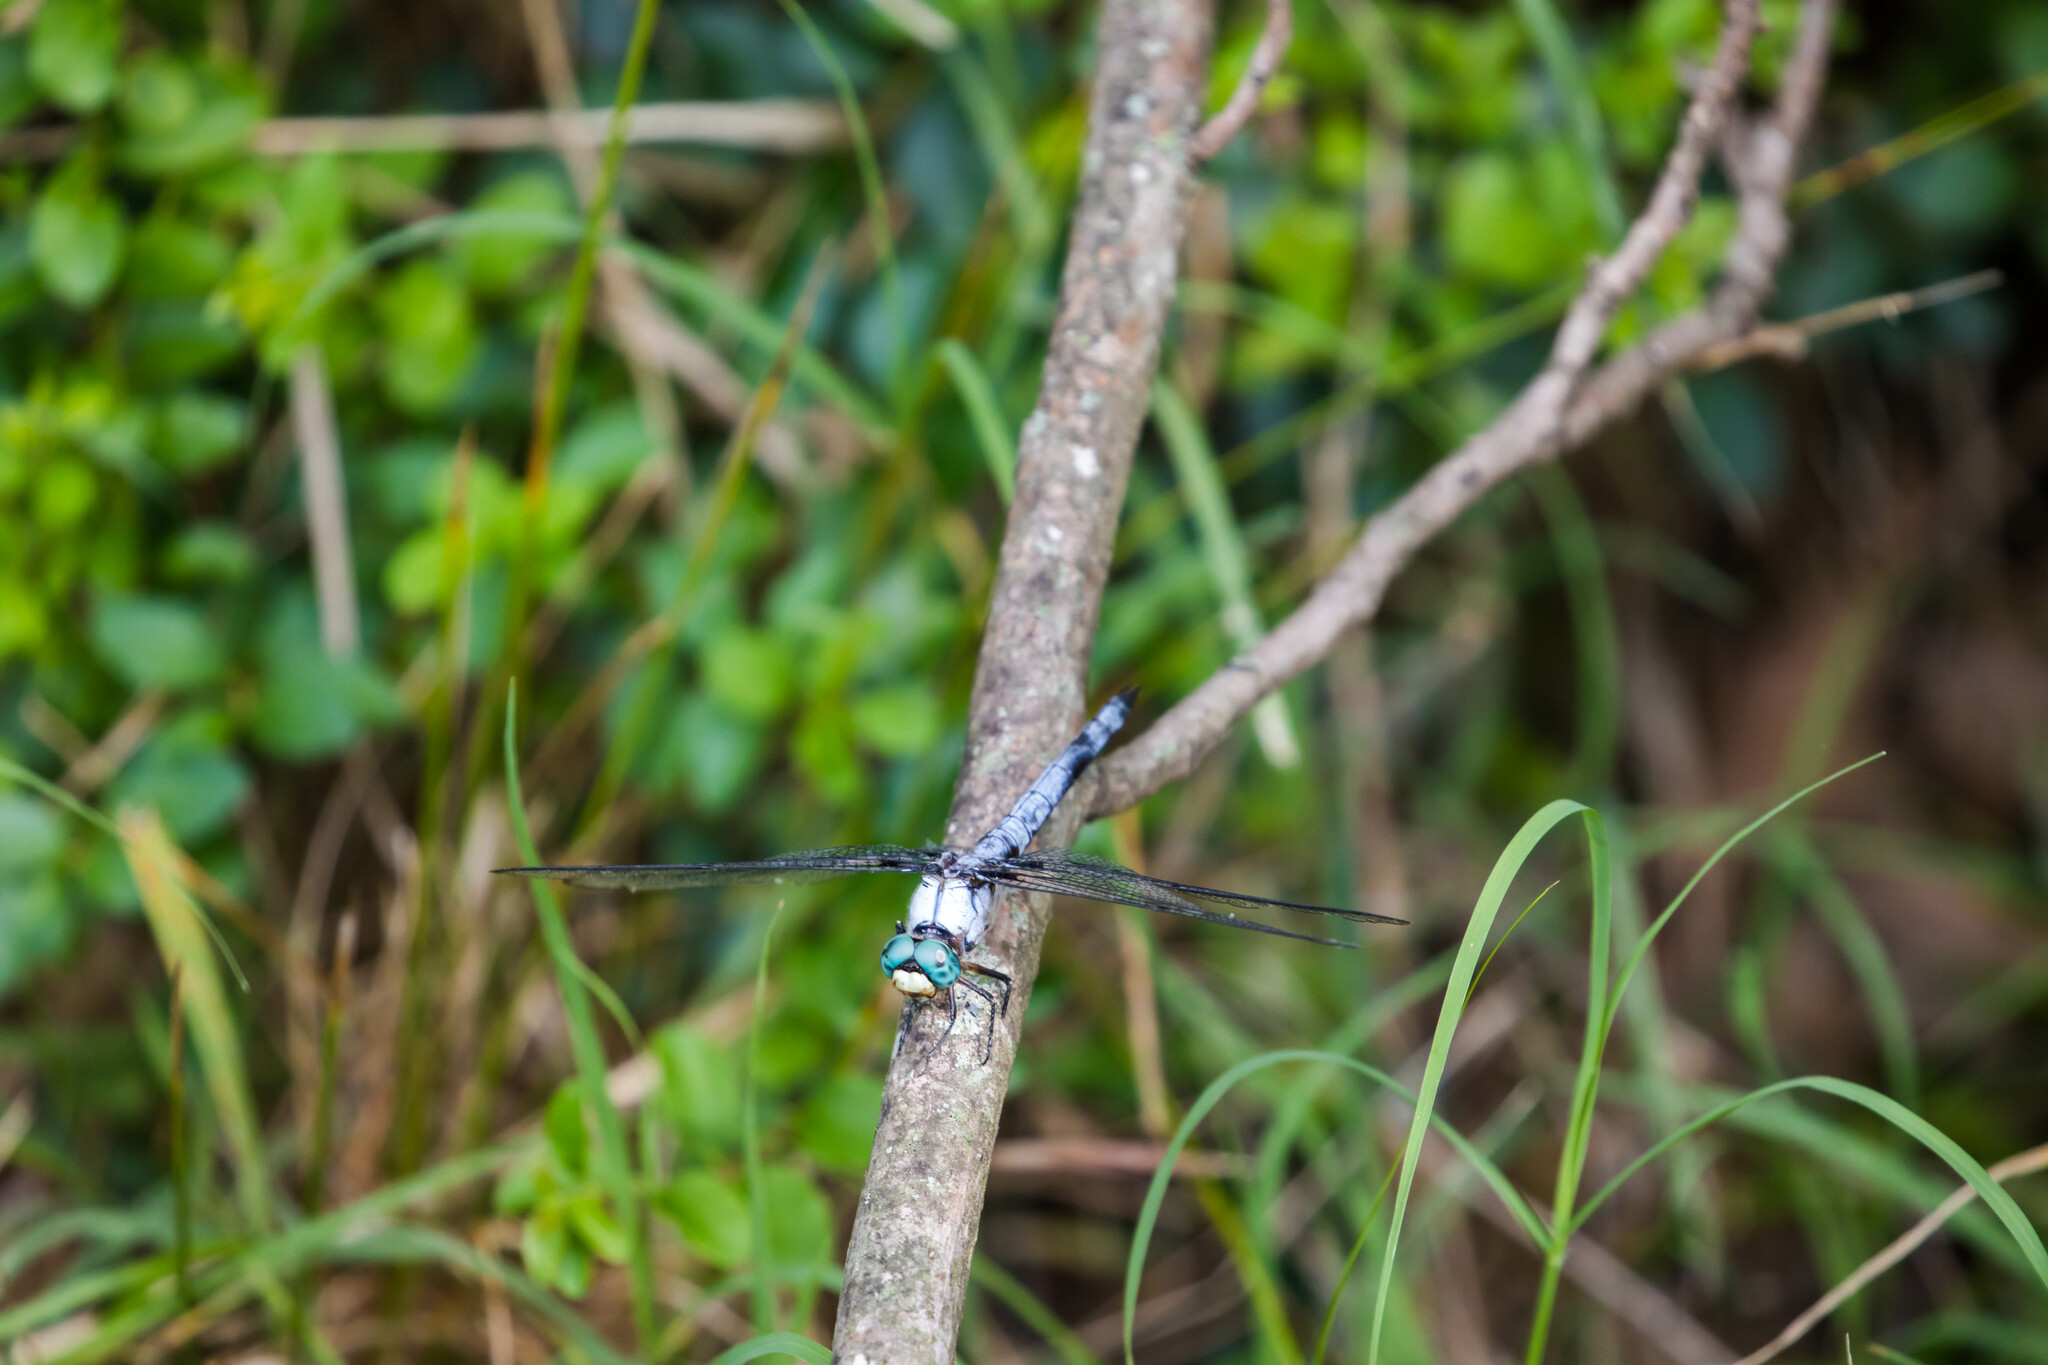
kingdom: Animalia
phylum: Arthropoda
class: Insecta
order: Odonata
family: Libellulidae
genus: Libellula
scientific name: Libellula vibrans
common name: Great blue skimmer
